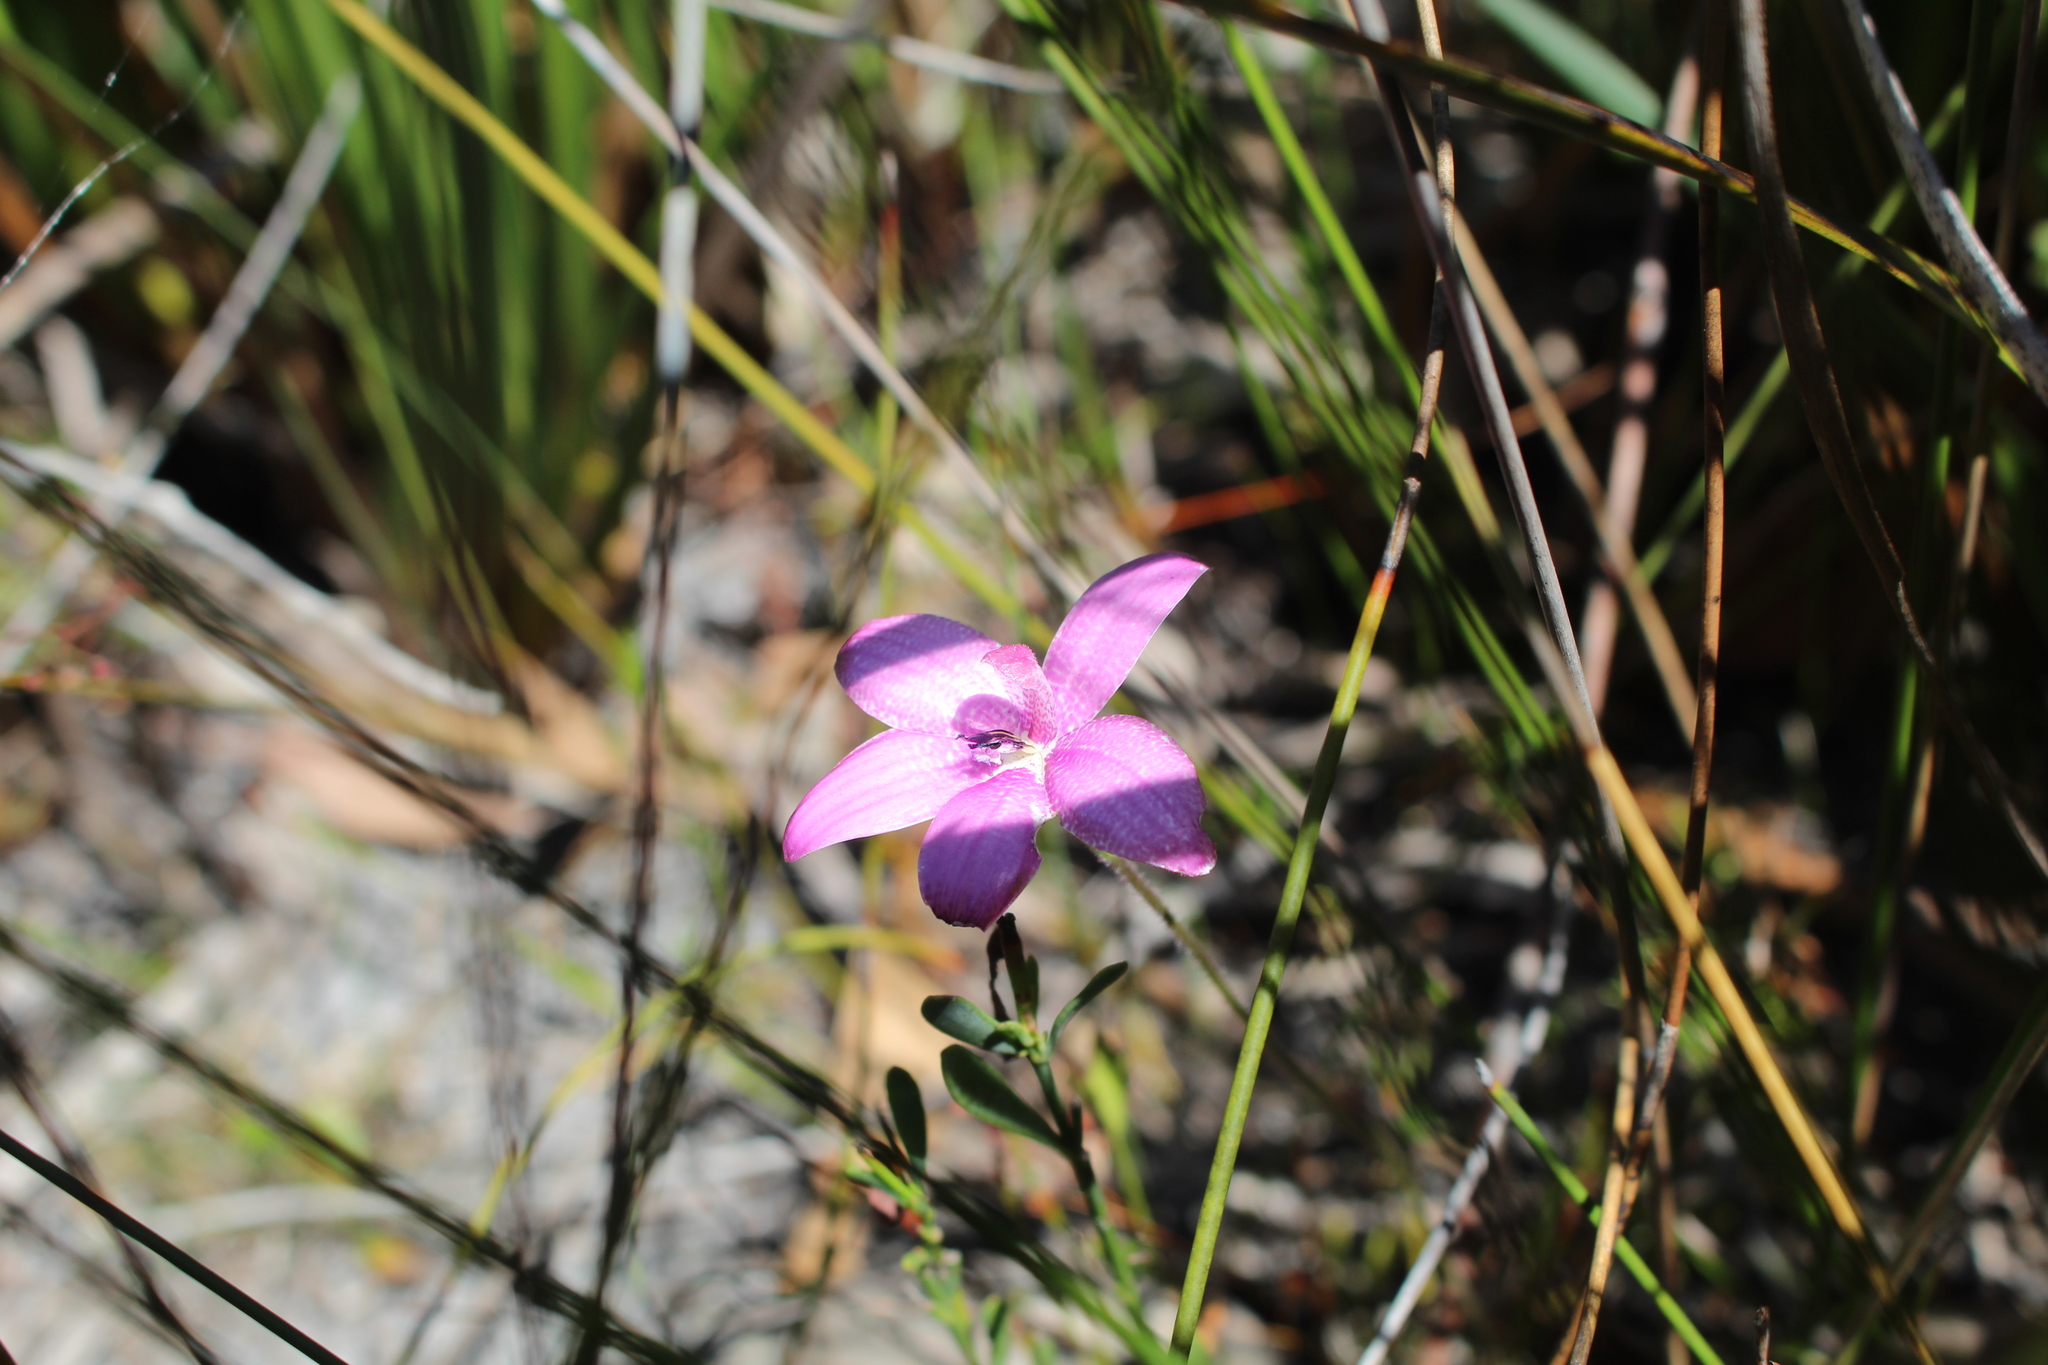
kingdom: Plantae
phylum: Tracheophyta
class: Liliopsida
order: Asparagales
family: Orchidaceae
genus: Caladenia
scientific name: Caladenia emarginata
